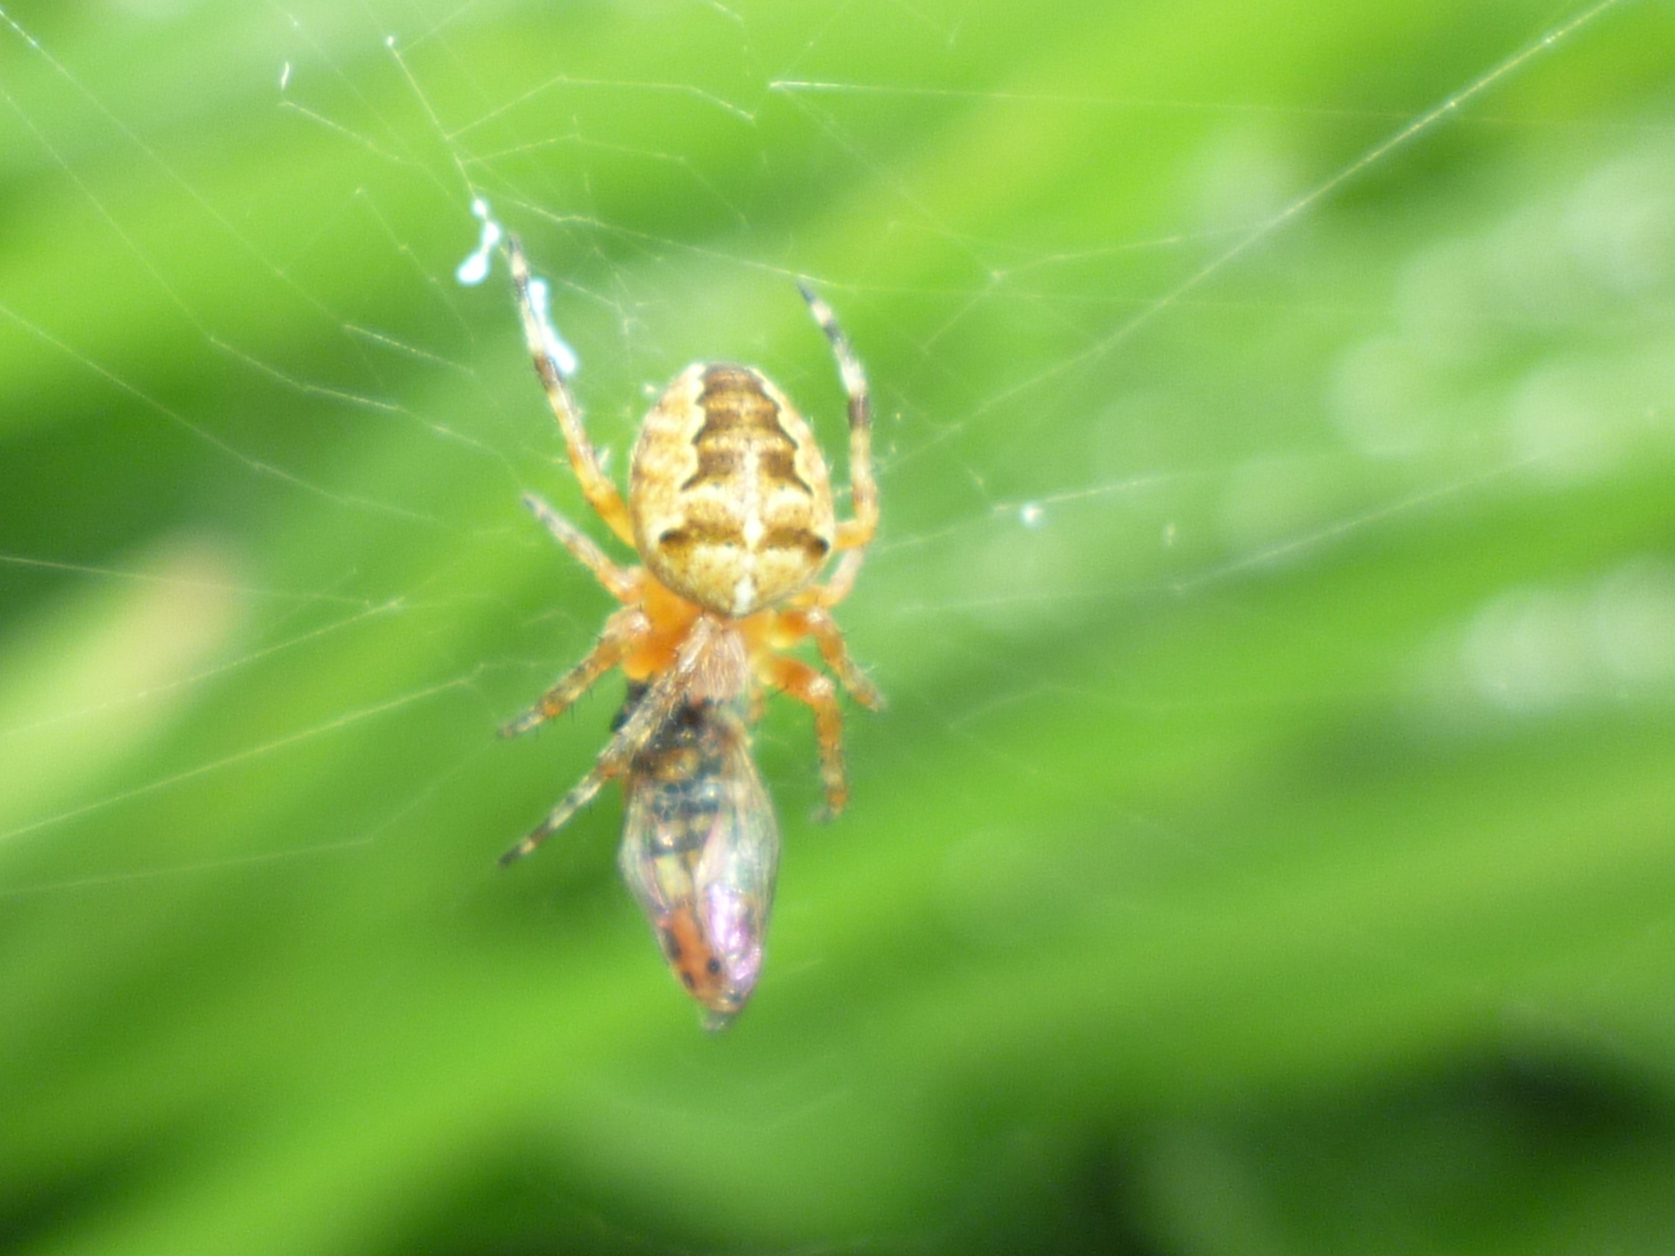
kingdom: Animalia
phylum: Arthropoda
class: Arachnida
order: Araneae
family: Araneidae
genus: Araneus
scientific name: Araneus diadematus
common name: Cross orbweaver
